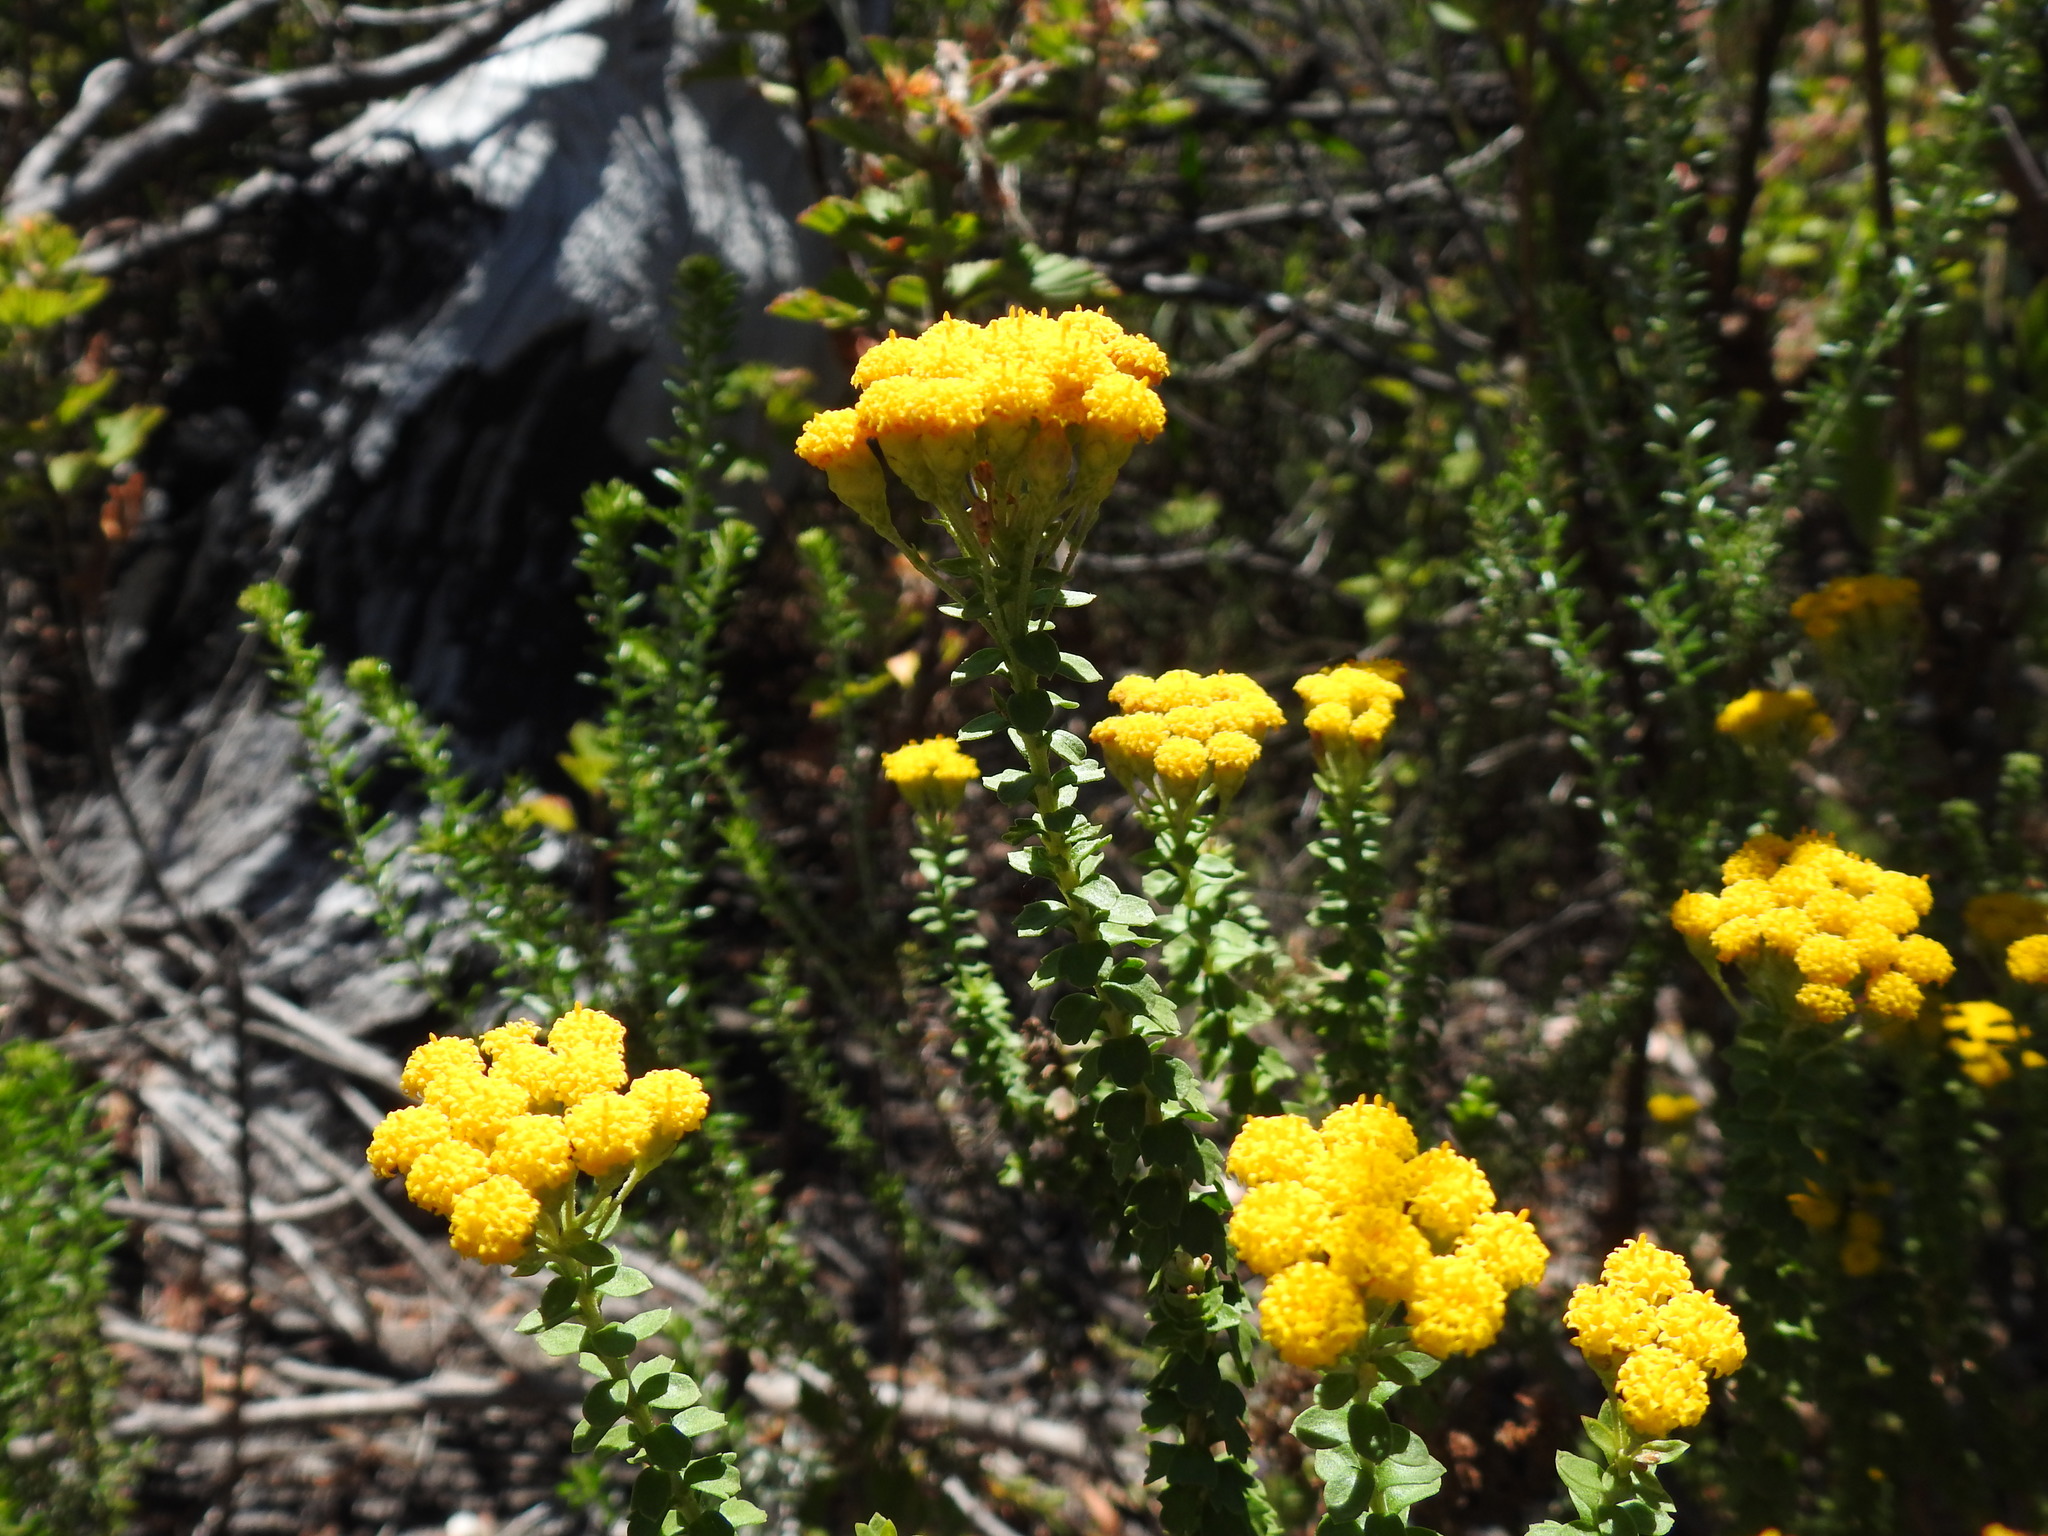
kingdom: Plantae
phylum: Tracheophyta
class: Magnoliopsida
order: Asterales
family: Asteraceae
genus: Athanasia
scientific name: Athanasia dentata
